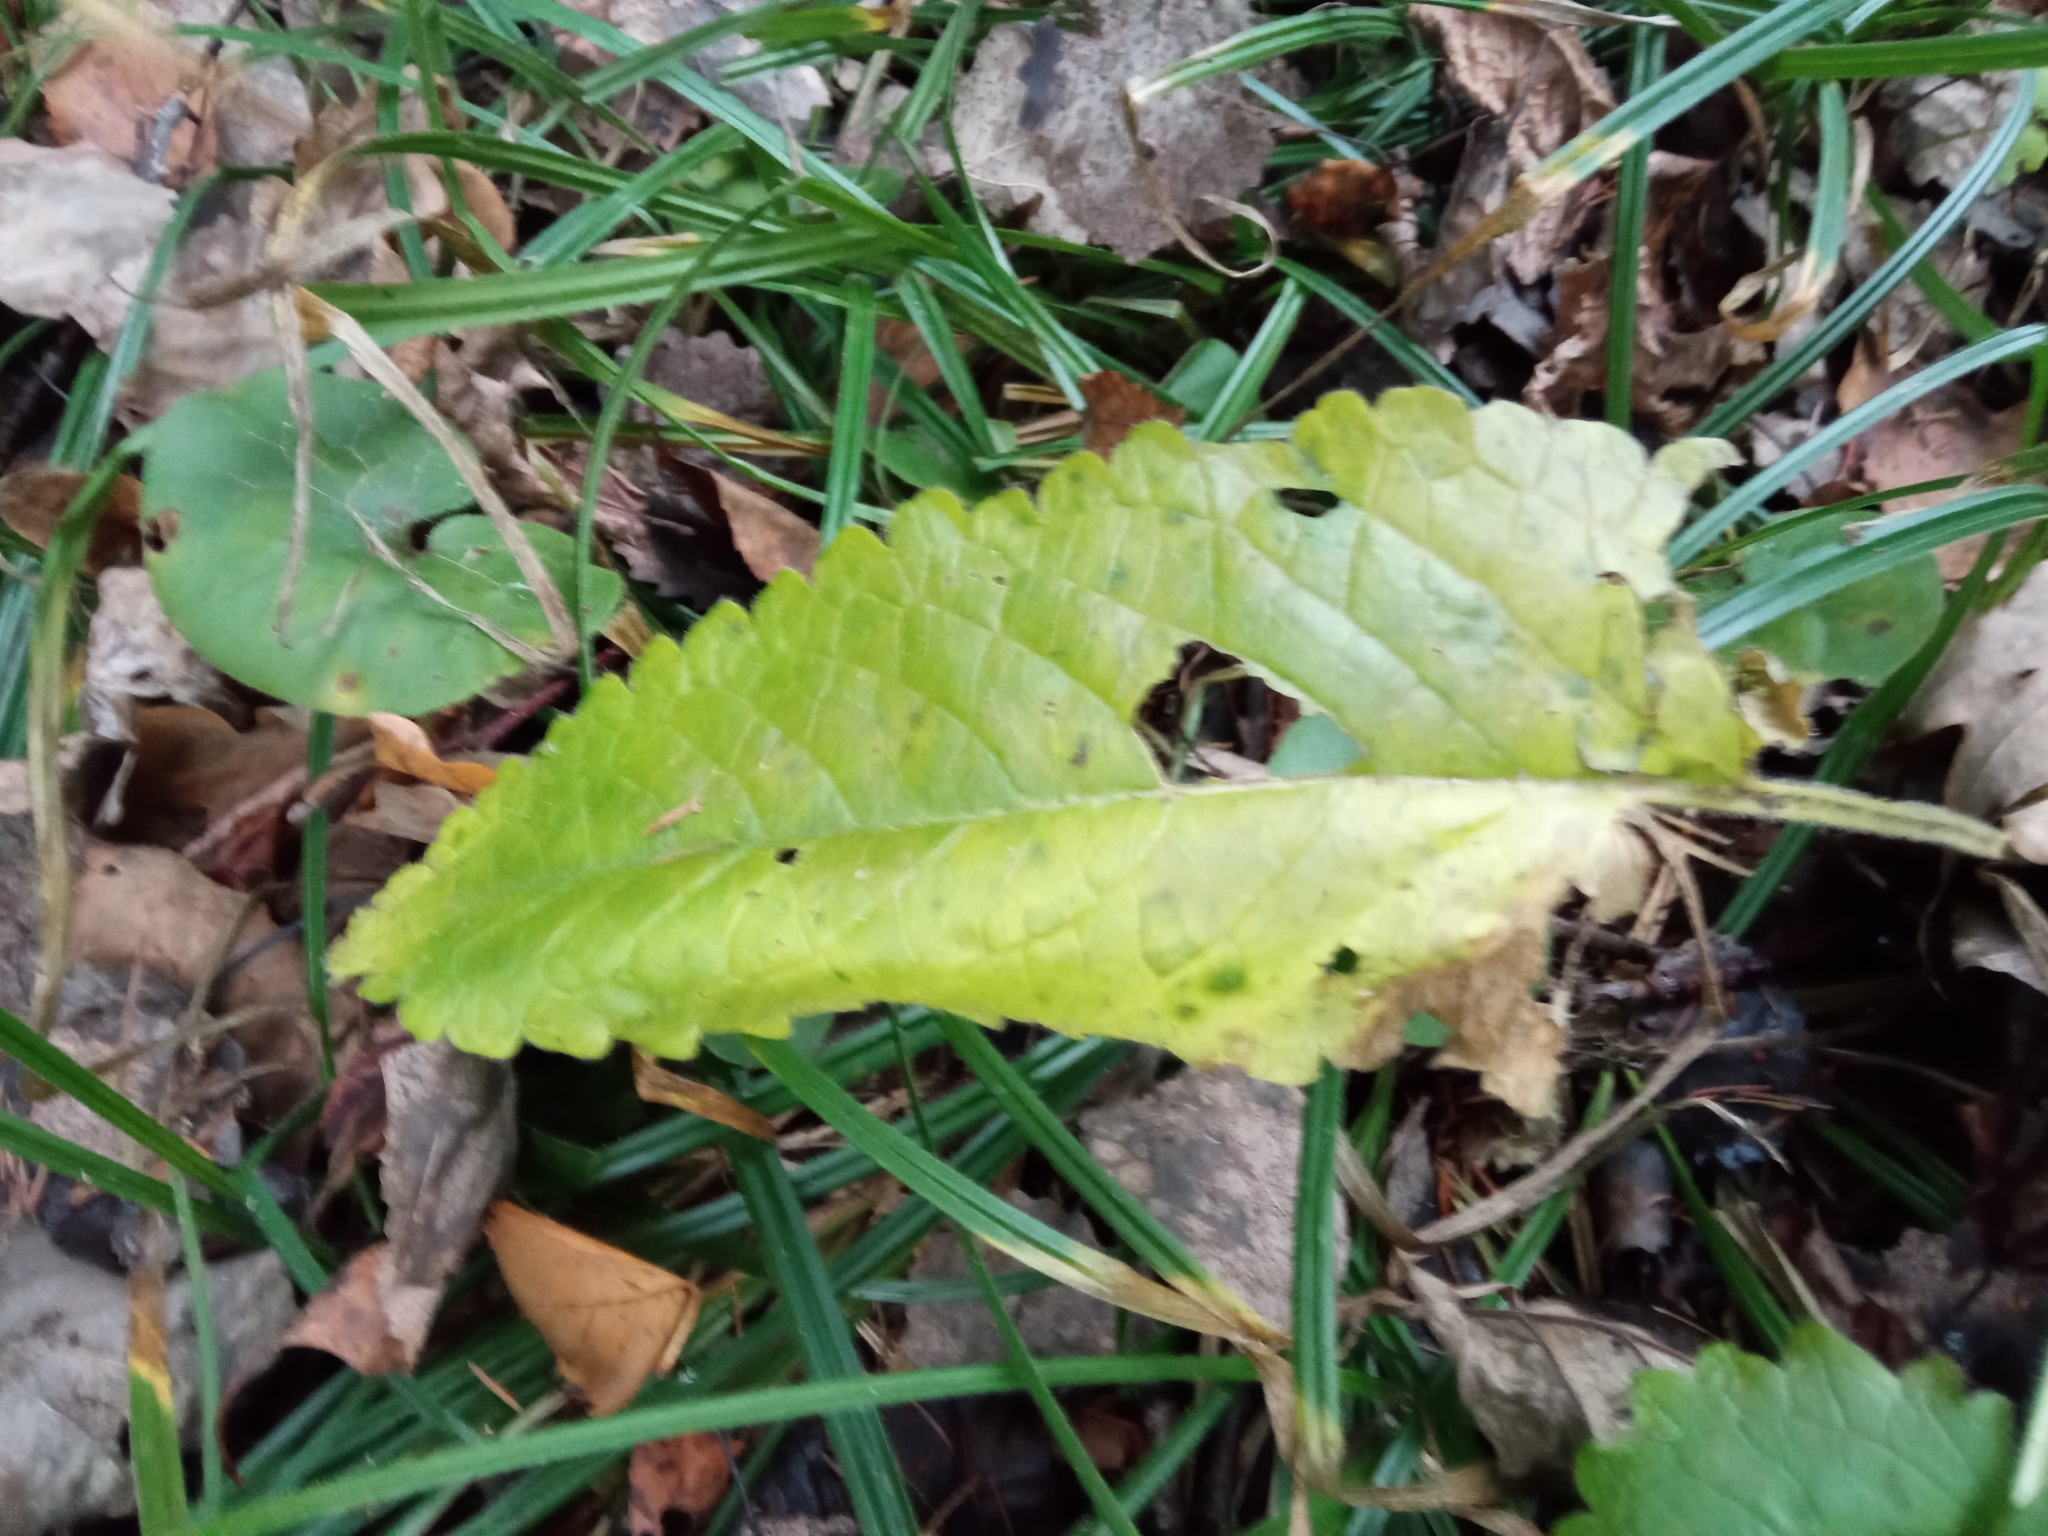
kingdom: Plantae
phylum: Tracheophyta
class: Magnoliopsida
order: Lamiales
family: Lamiaceae
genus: Betonica
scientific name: Betonica officinalis
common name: Bishop's-wort
